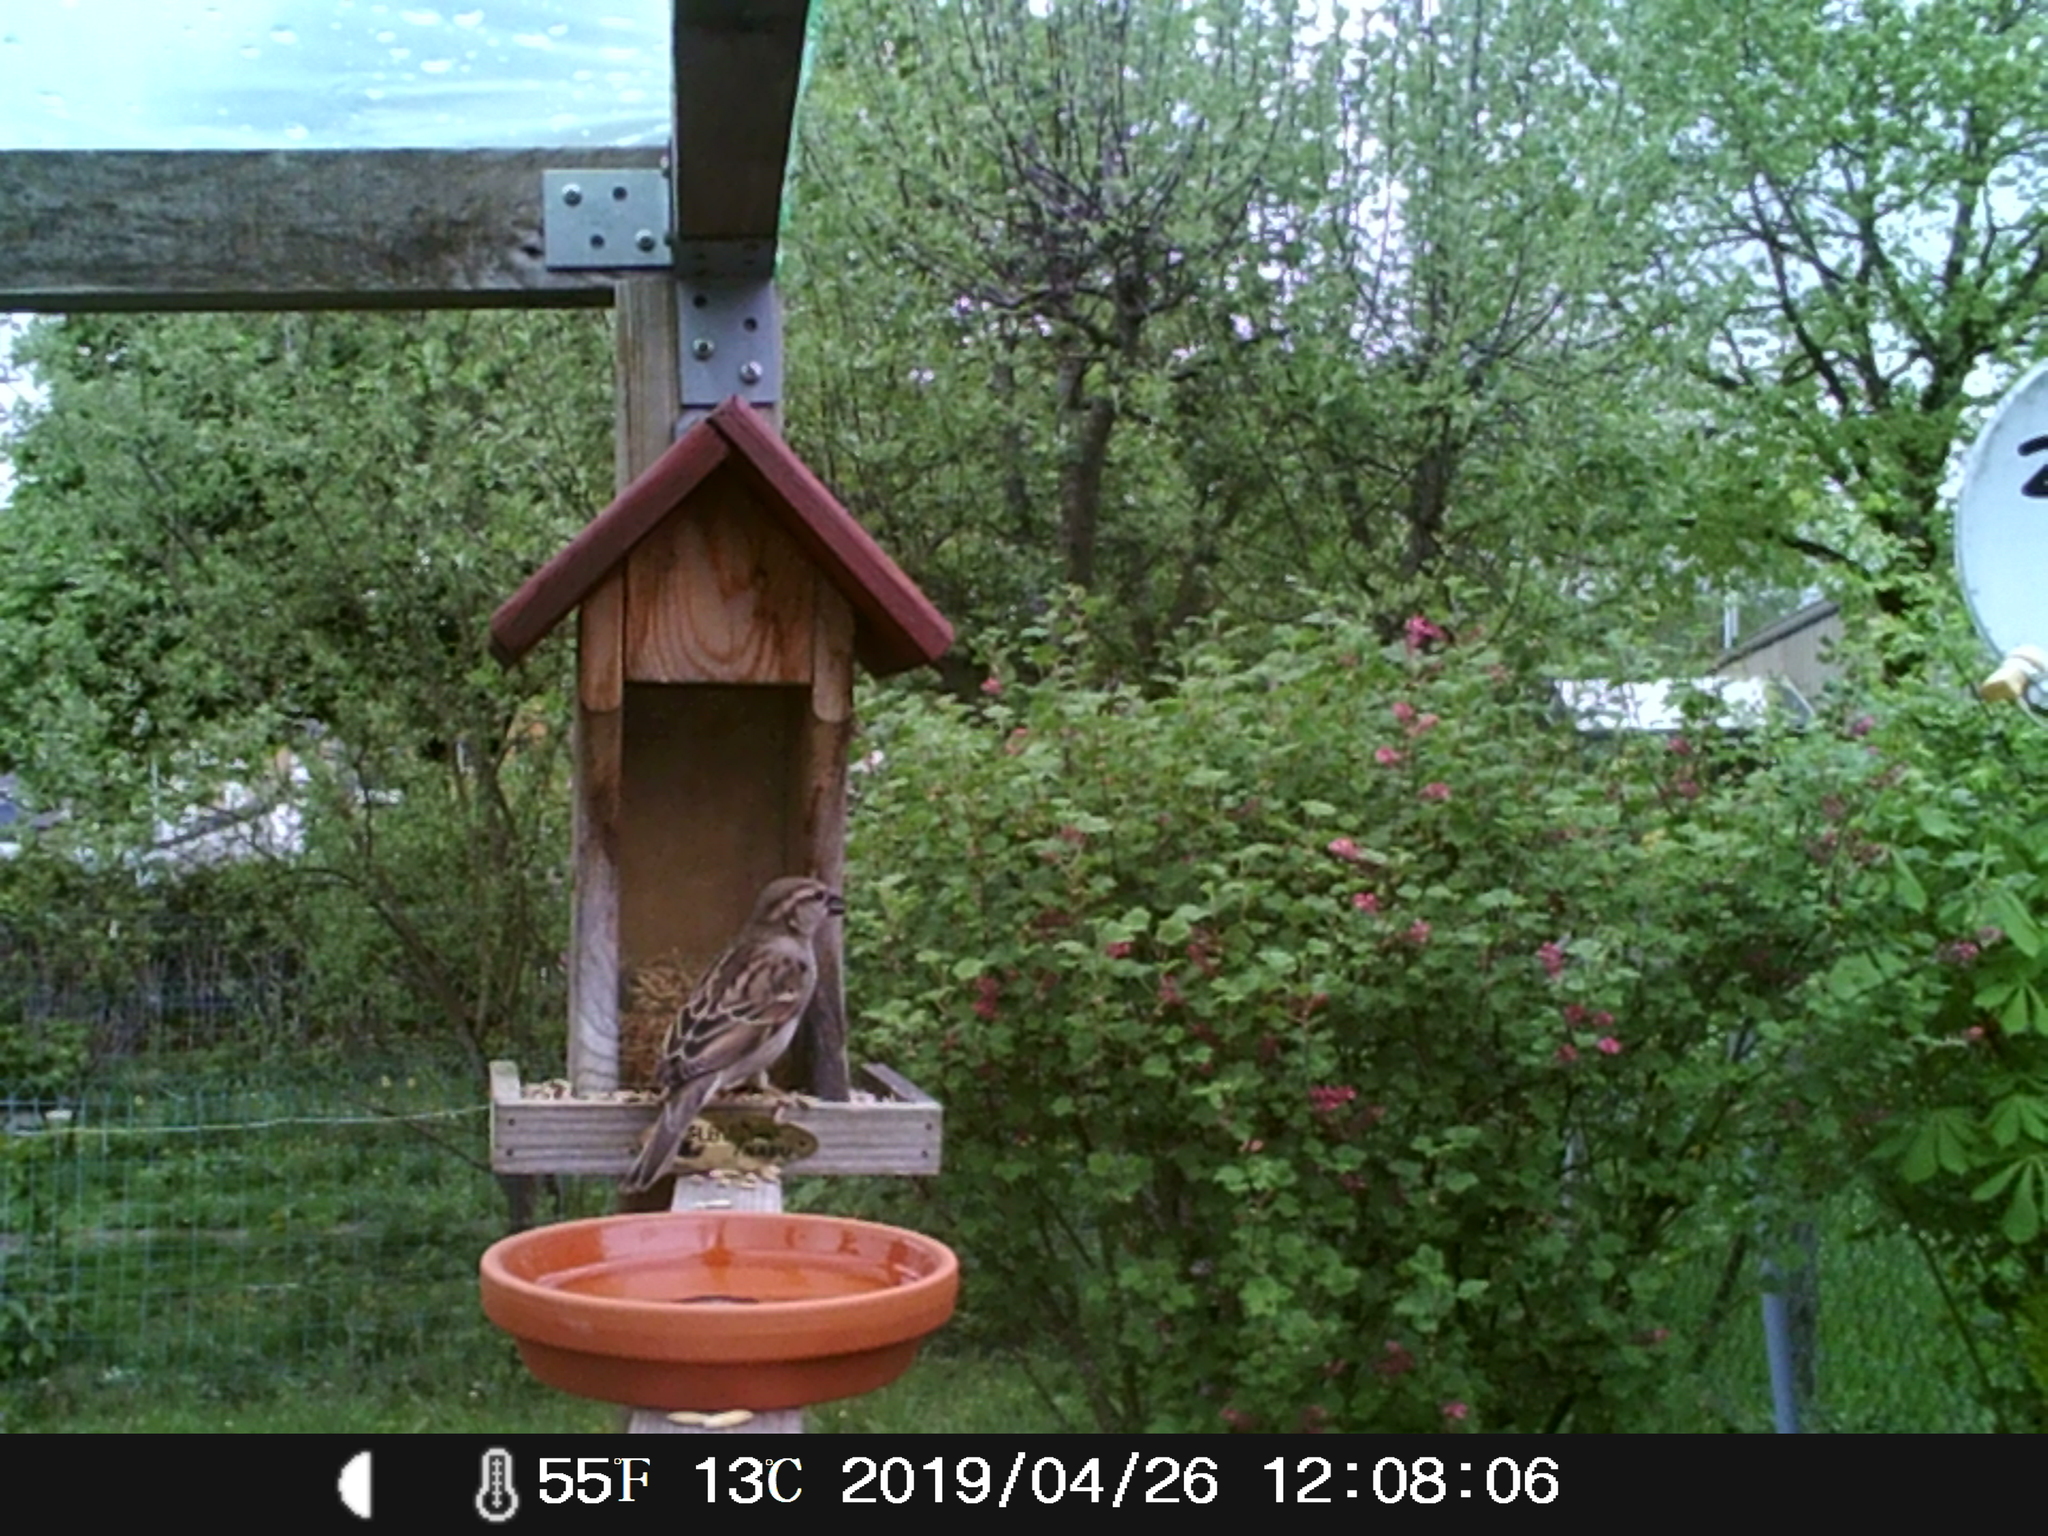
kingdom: Animalia
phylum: Chordata
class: Aves
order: Passeriformes
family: Passeridae
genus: Passer
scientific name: Passer domesticus
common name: House sparrow
